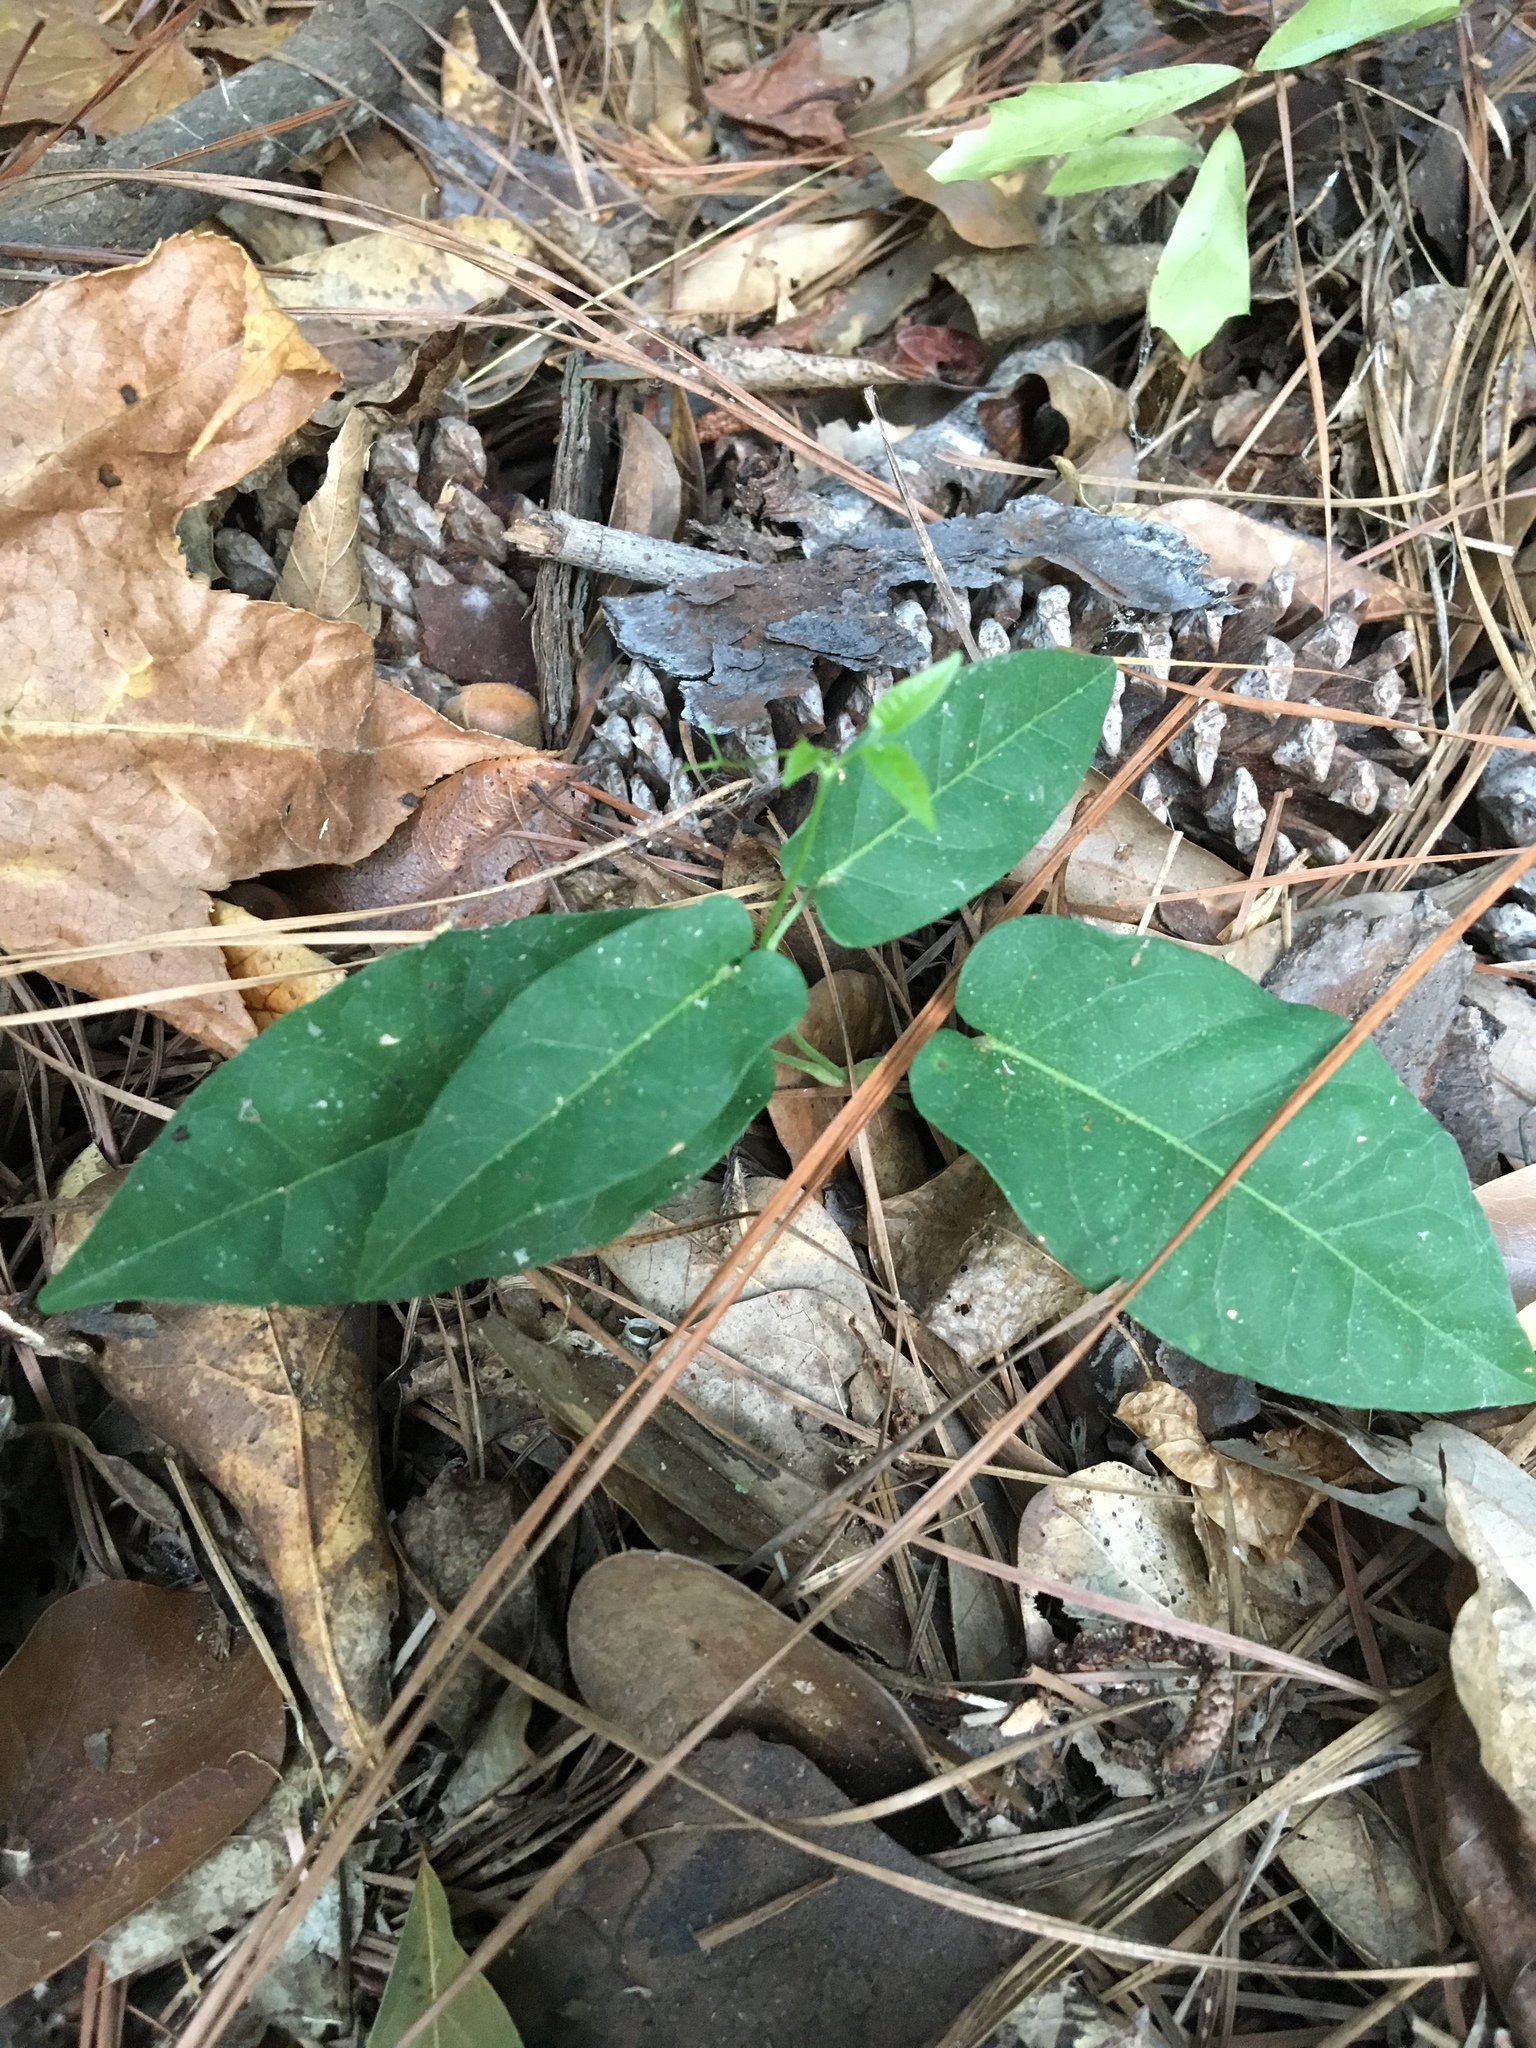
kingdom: Plantae
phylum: Tracheophyta
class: Magnoliopsida
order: Lamiales
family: Bignoniaceae
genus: Bignonia
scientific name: Bignonia capreolata
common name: Crossvine
